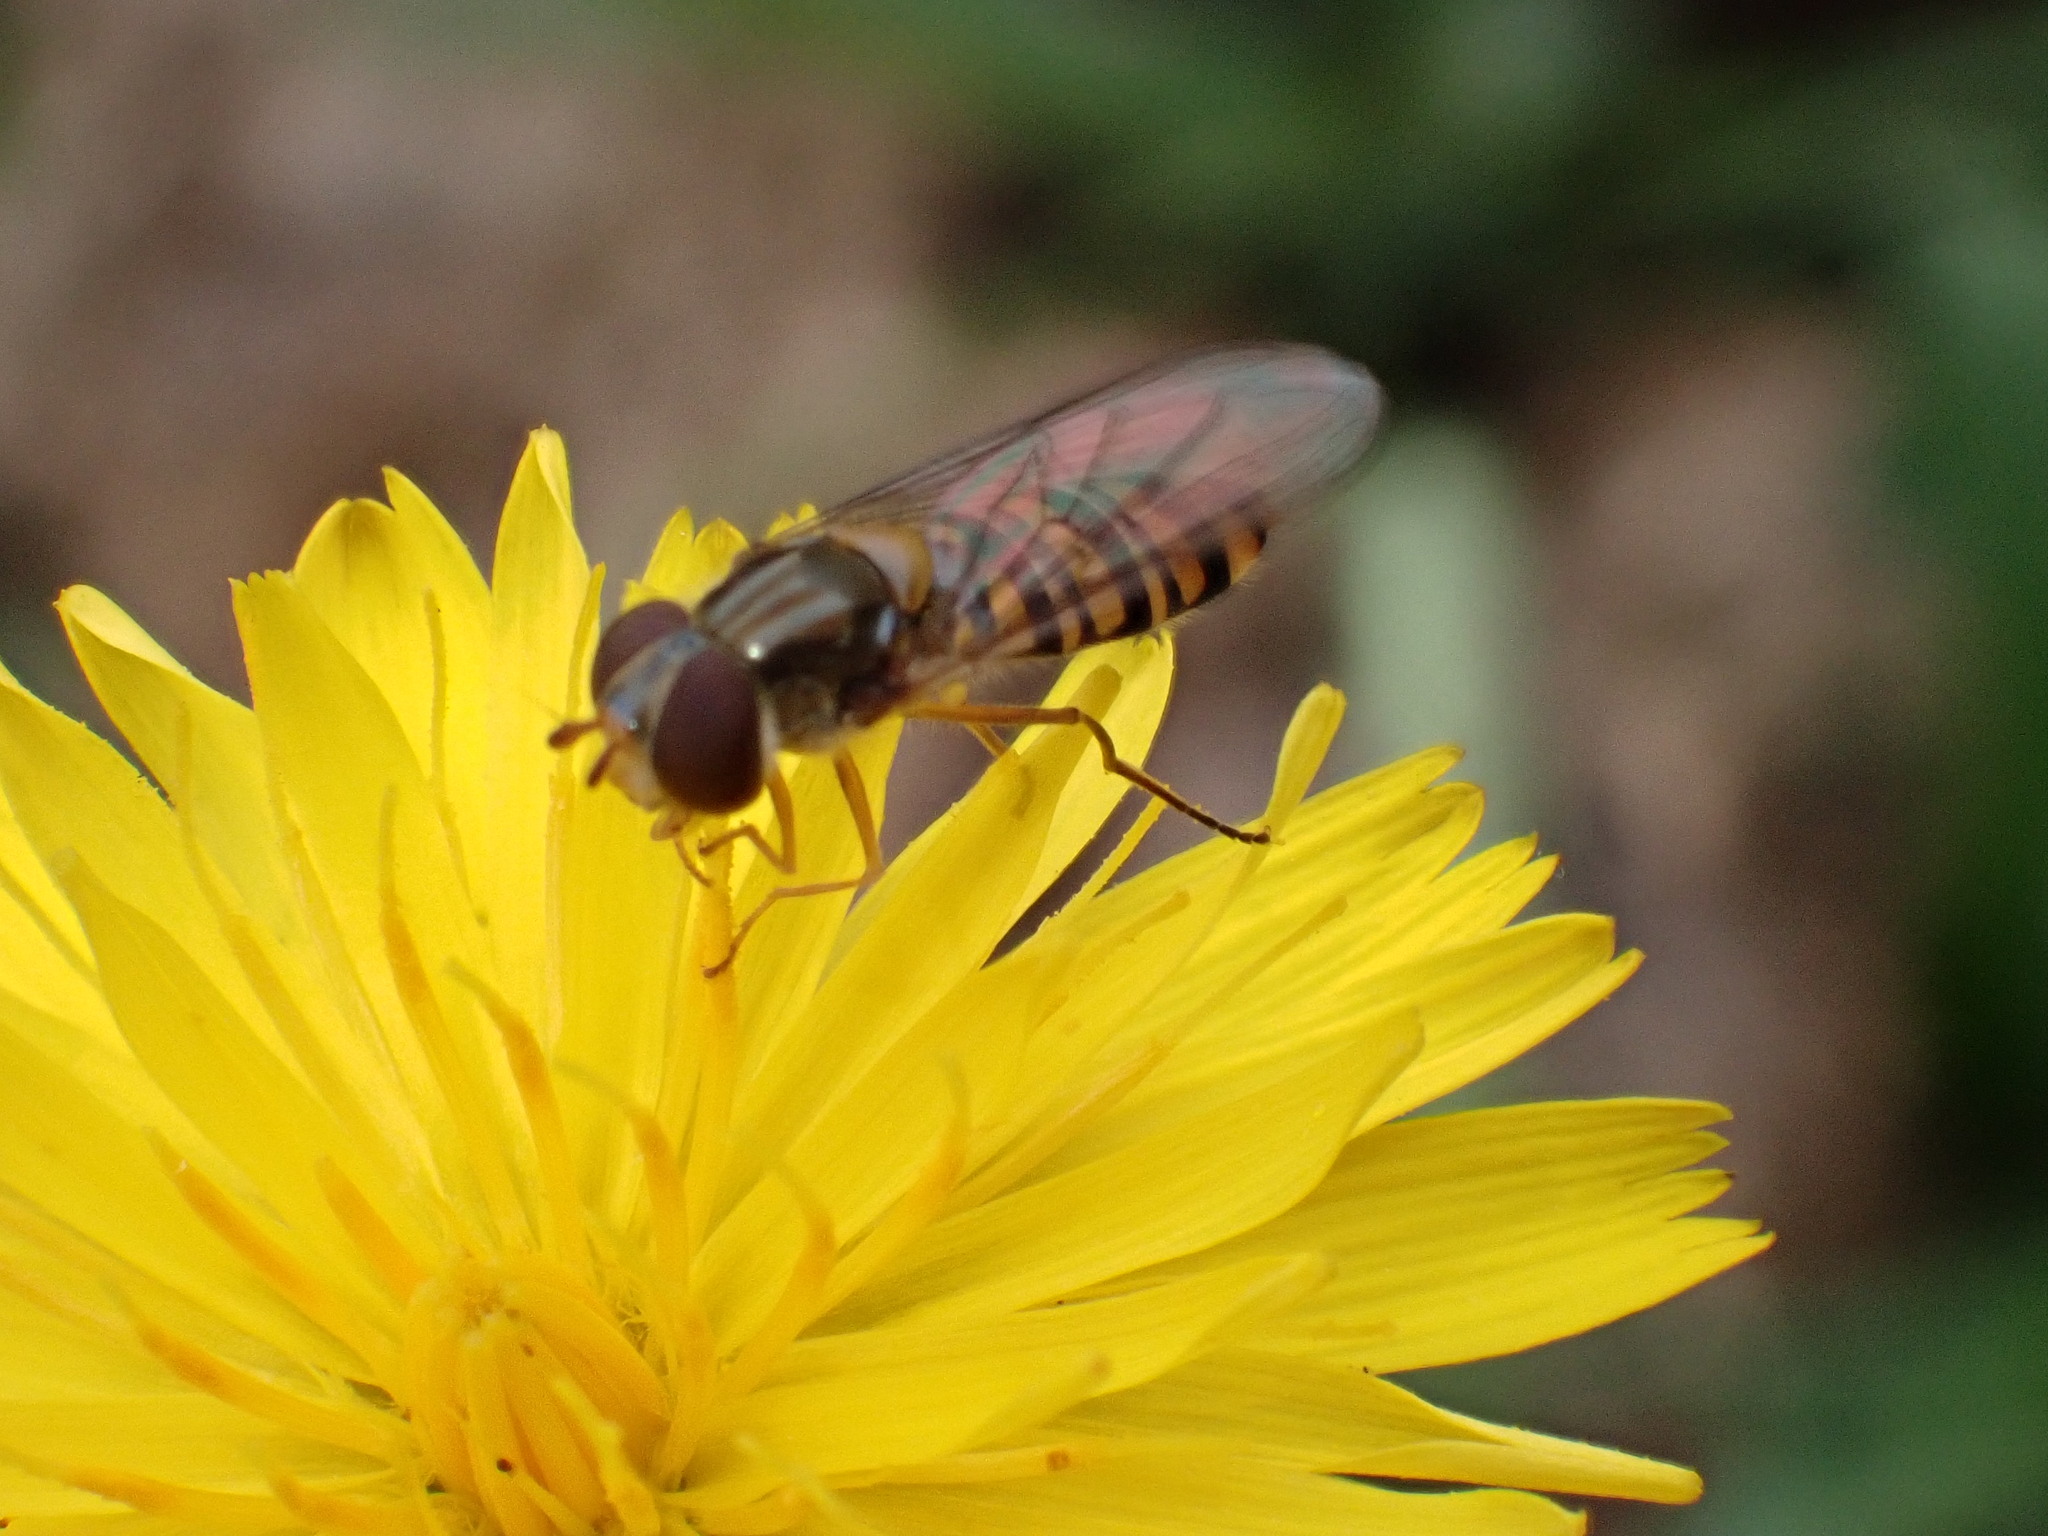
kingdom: Animalia
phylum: Arthropoda
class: Insecta
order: Diptera
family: Syrphidae
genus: Episyrphus
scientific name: Episyrphus balteatus
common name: Marmalade hoverfly
